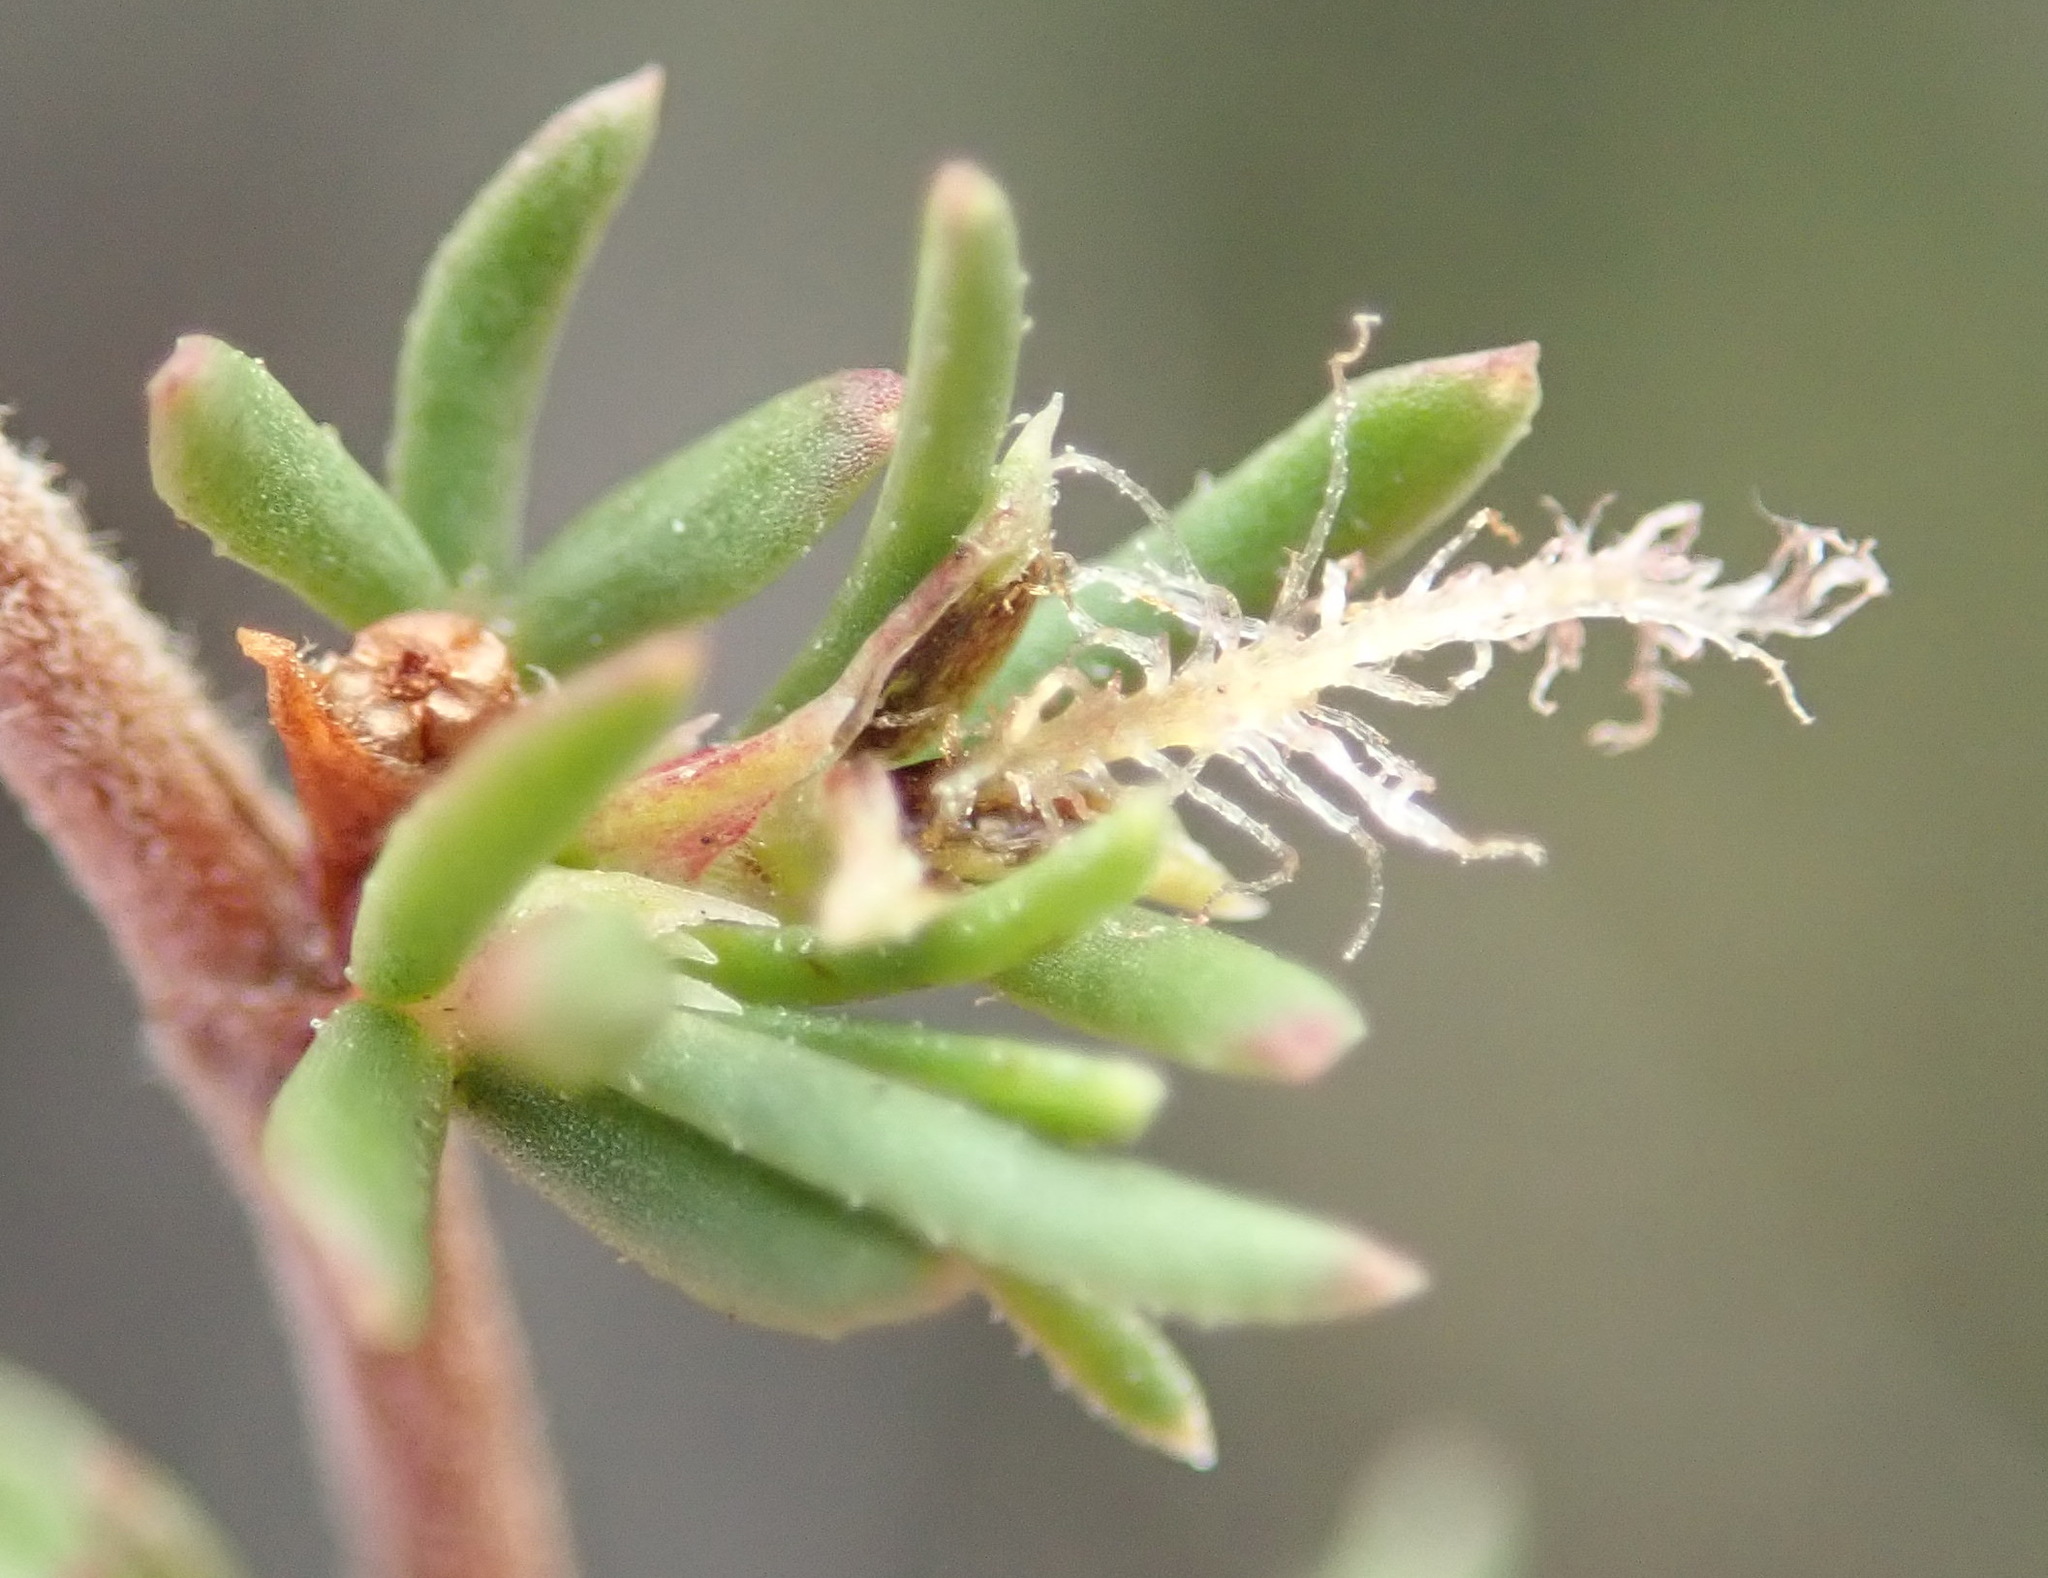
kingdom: Plantae
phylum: Tracheophyta
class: Magnoliopsida
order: Rosales
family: Rosaceae
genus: Cliffortia
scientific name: Cliffortia ramosissima
